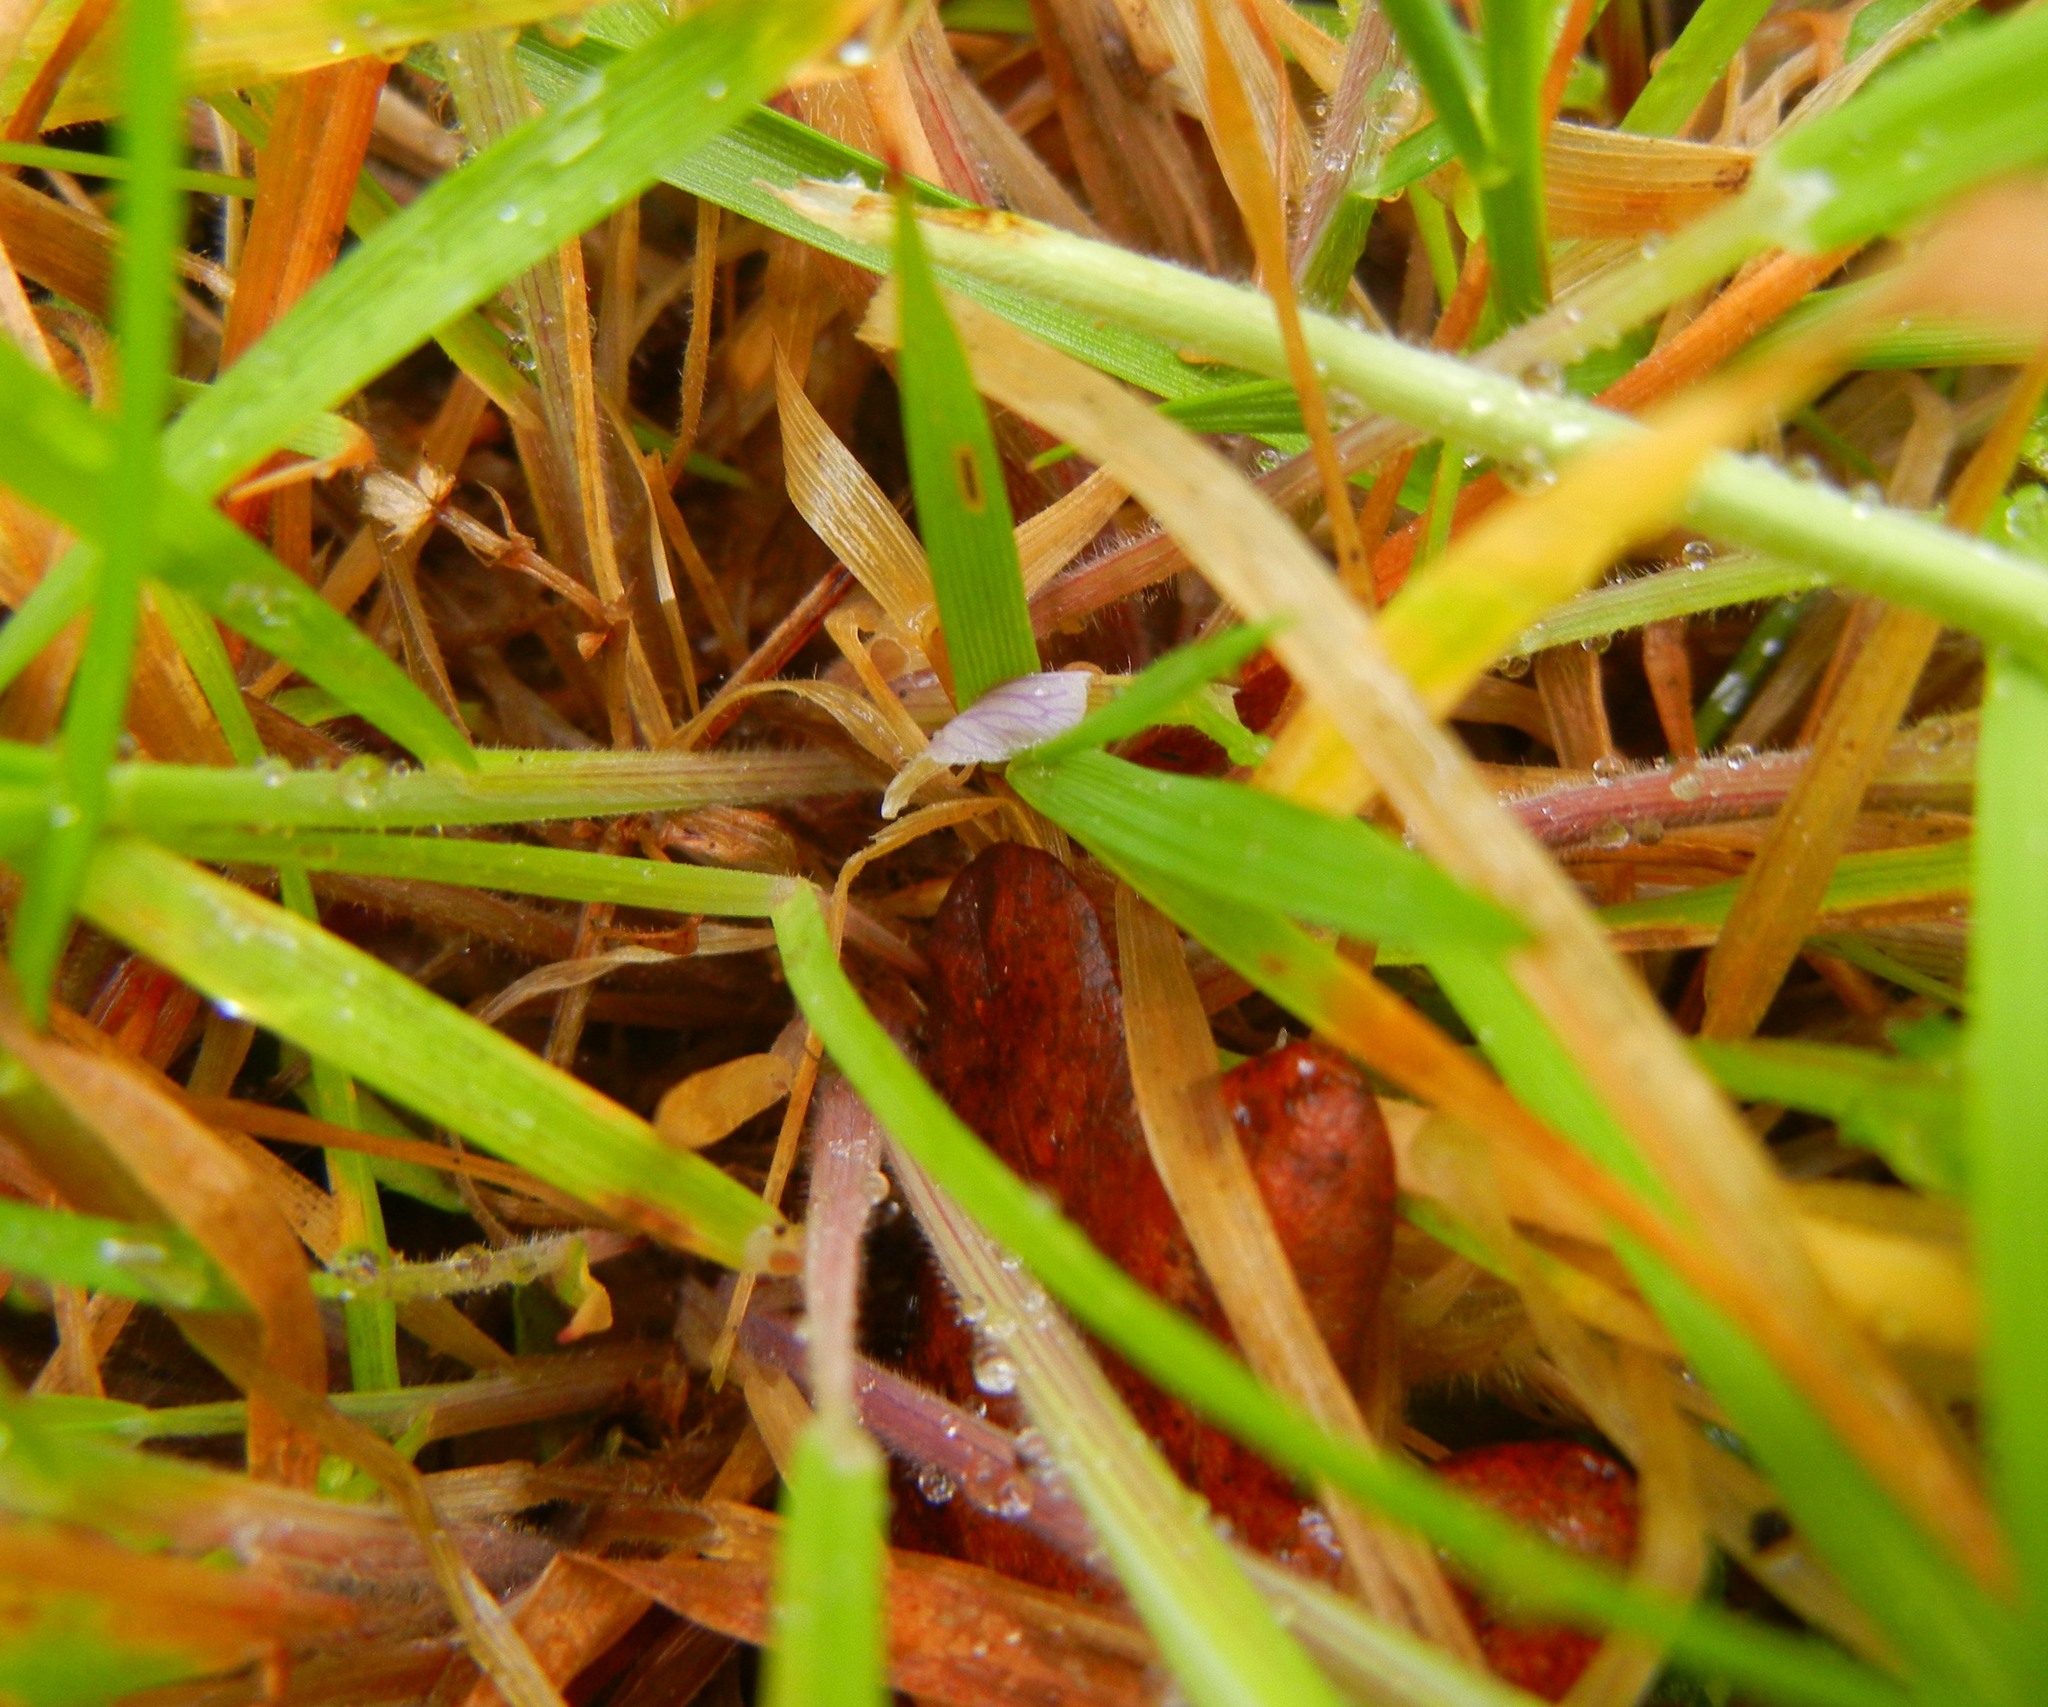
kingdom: Plantae
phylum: Tracheophyta
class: Liliopsida
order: Poales
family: Poaceae
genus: Holcus
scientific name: Holcus lanatus
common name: Yorkshire-fog
